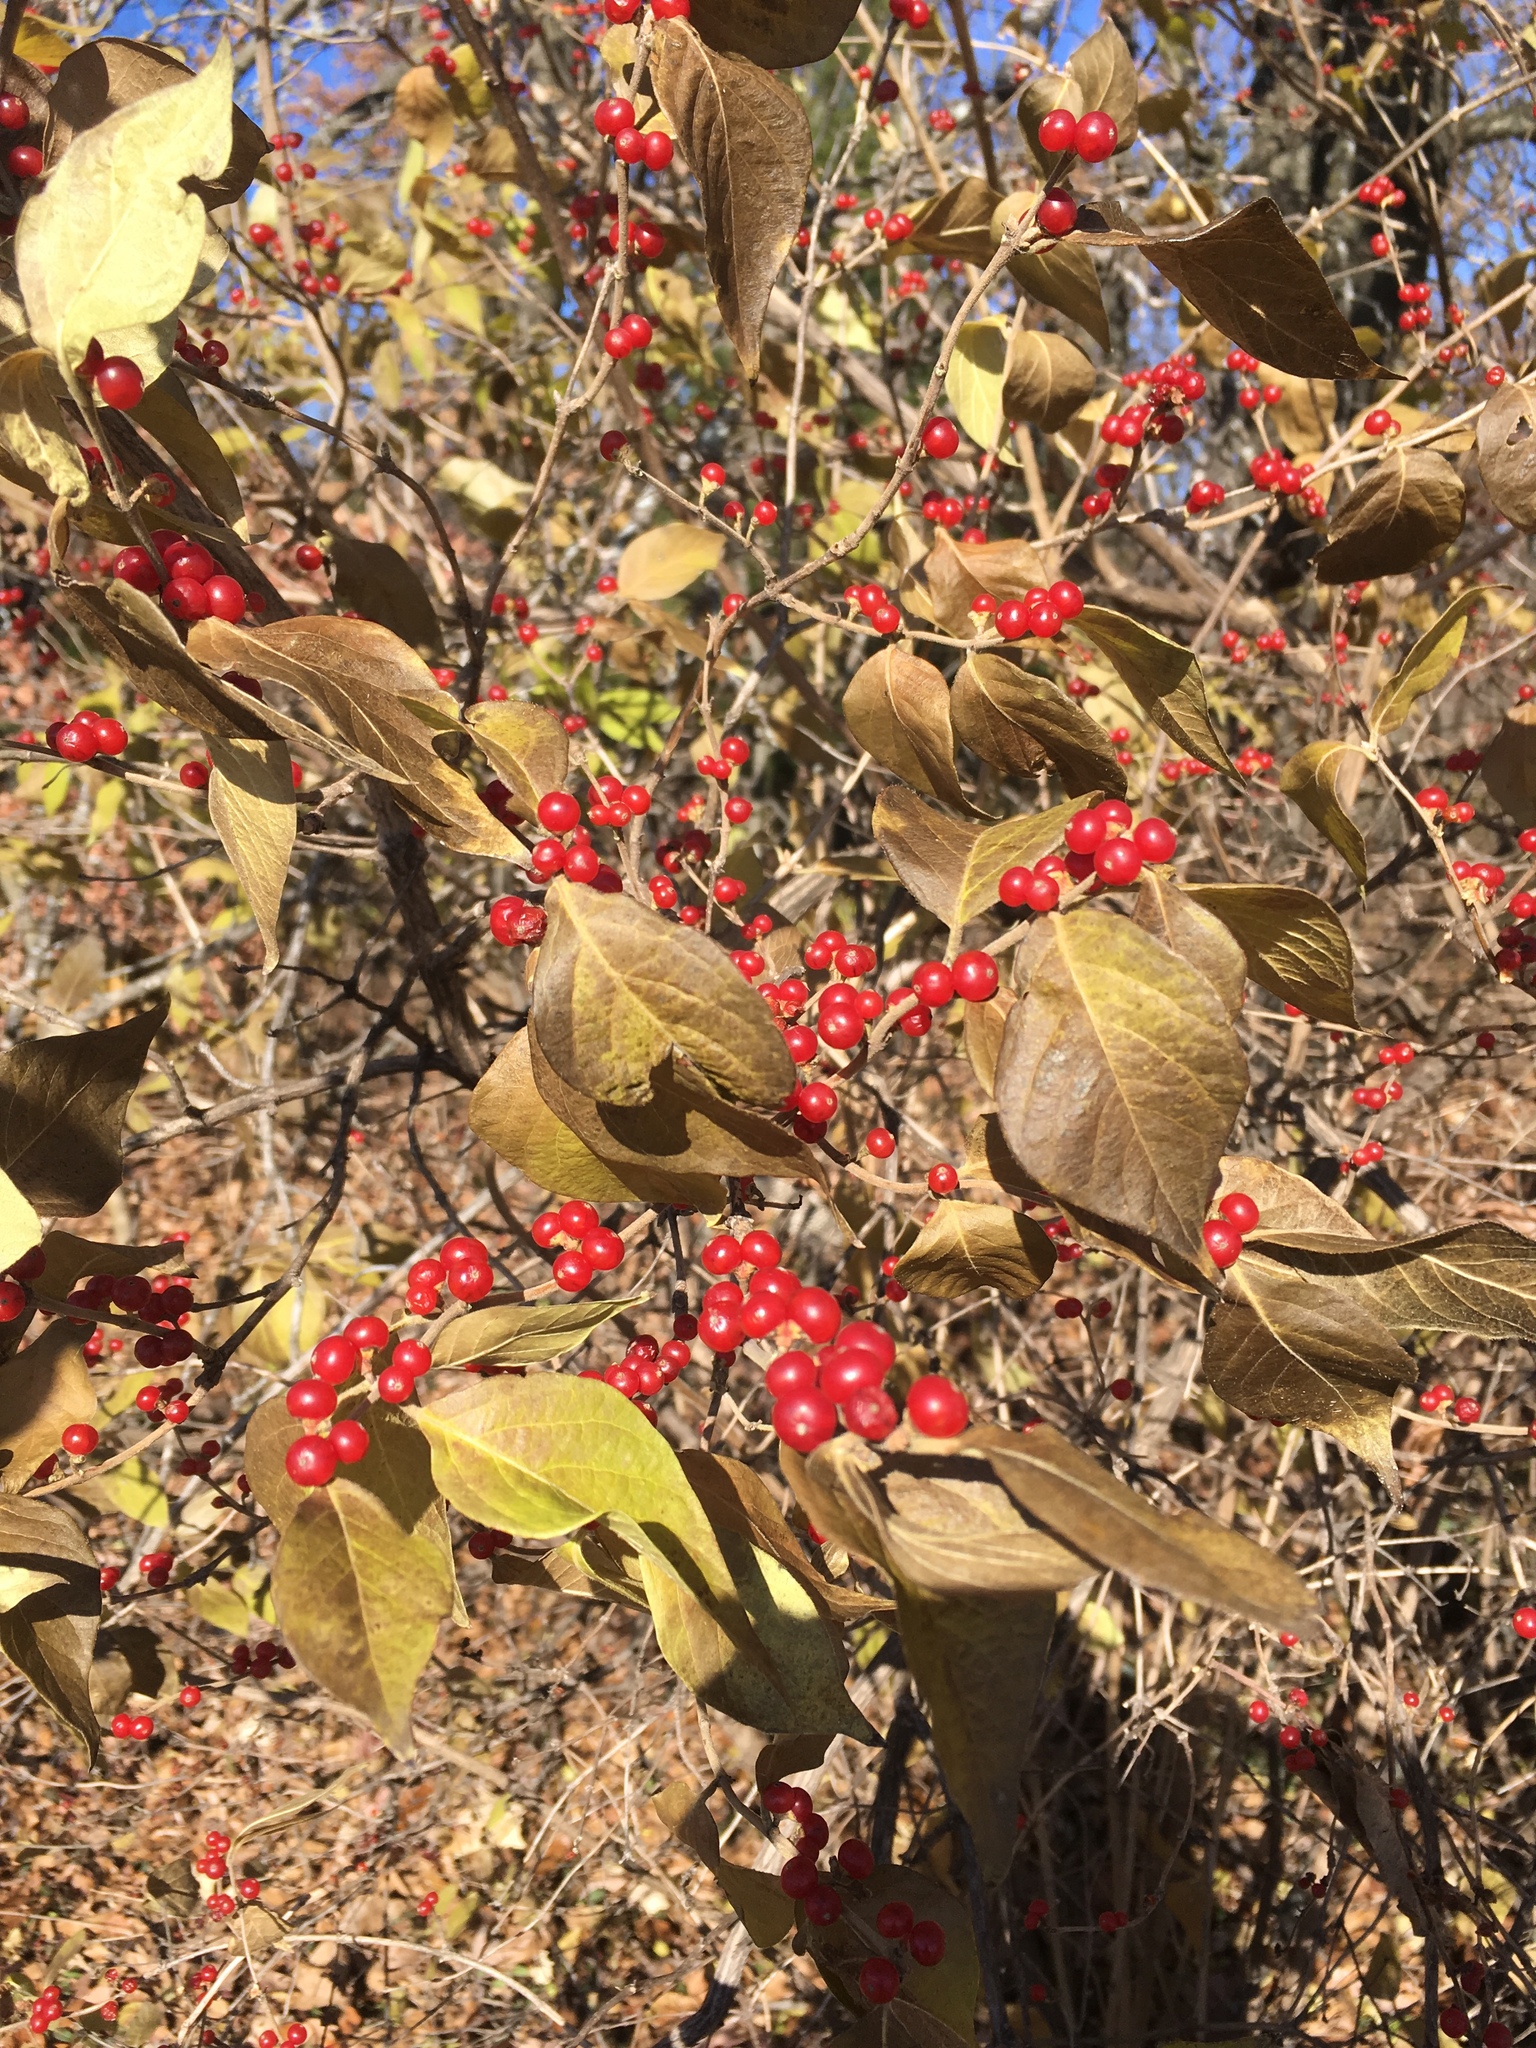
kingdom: Plantae
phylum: Tracheophyta
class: Magnoliopsida
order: Dipsacales
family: Caprifoliaceae
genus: Lonicera
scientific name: Lonicera maackii
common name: Amur honeysuckle
